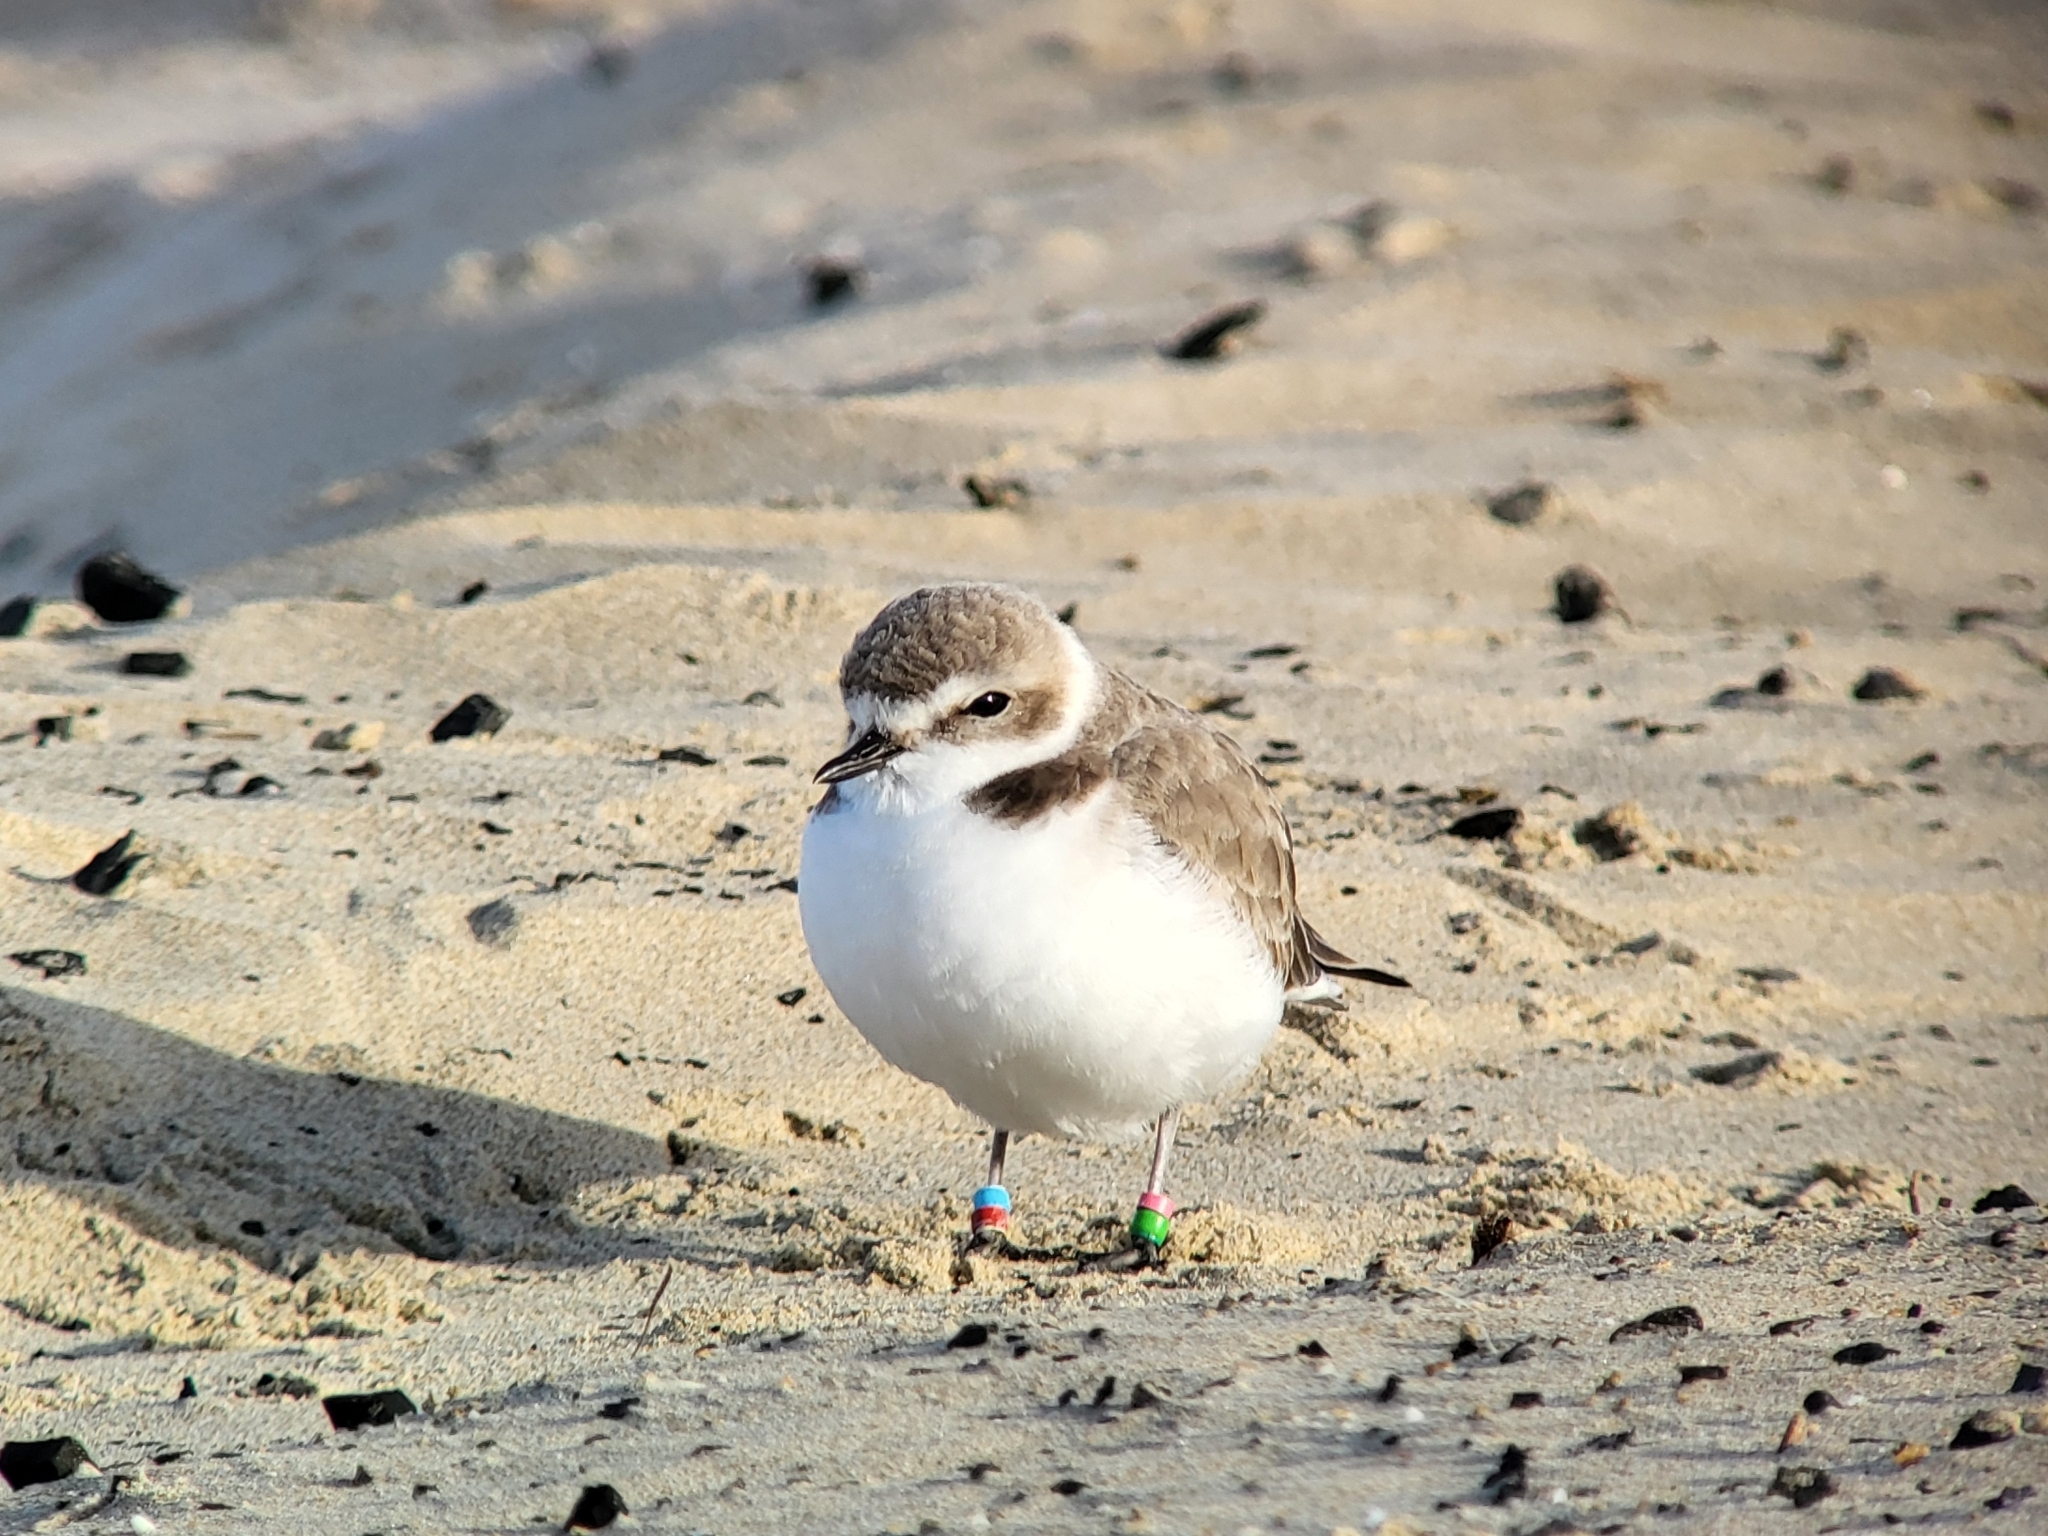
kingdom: Animalia
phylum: Chordata
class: Aves
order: Charadriiformes
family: Charadriidae
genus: Anarhynchus
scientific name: Anarhynchus
